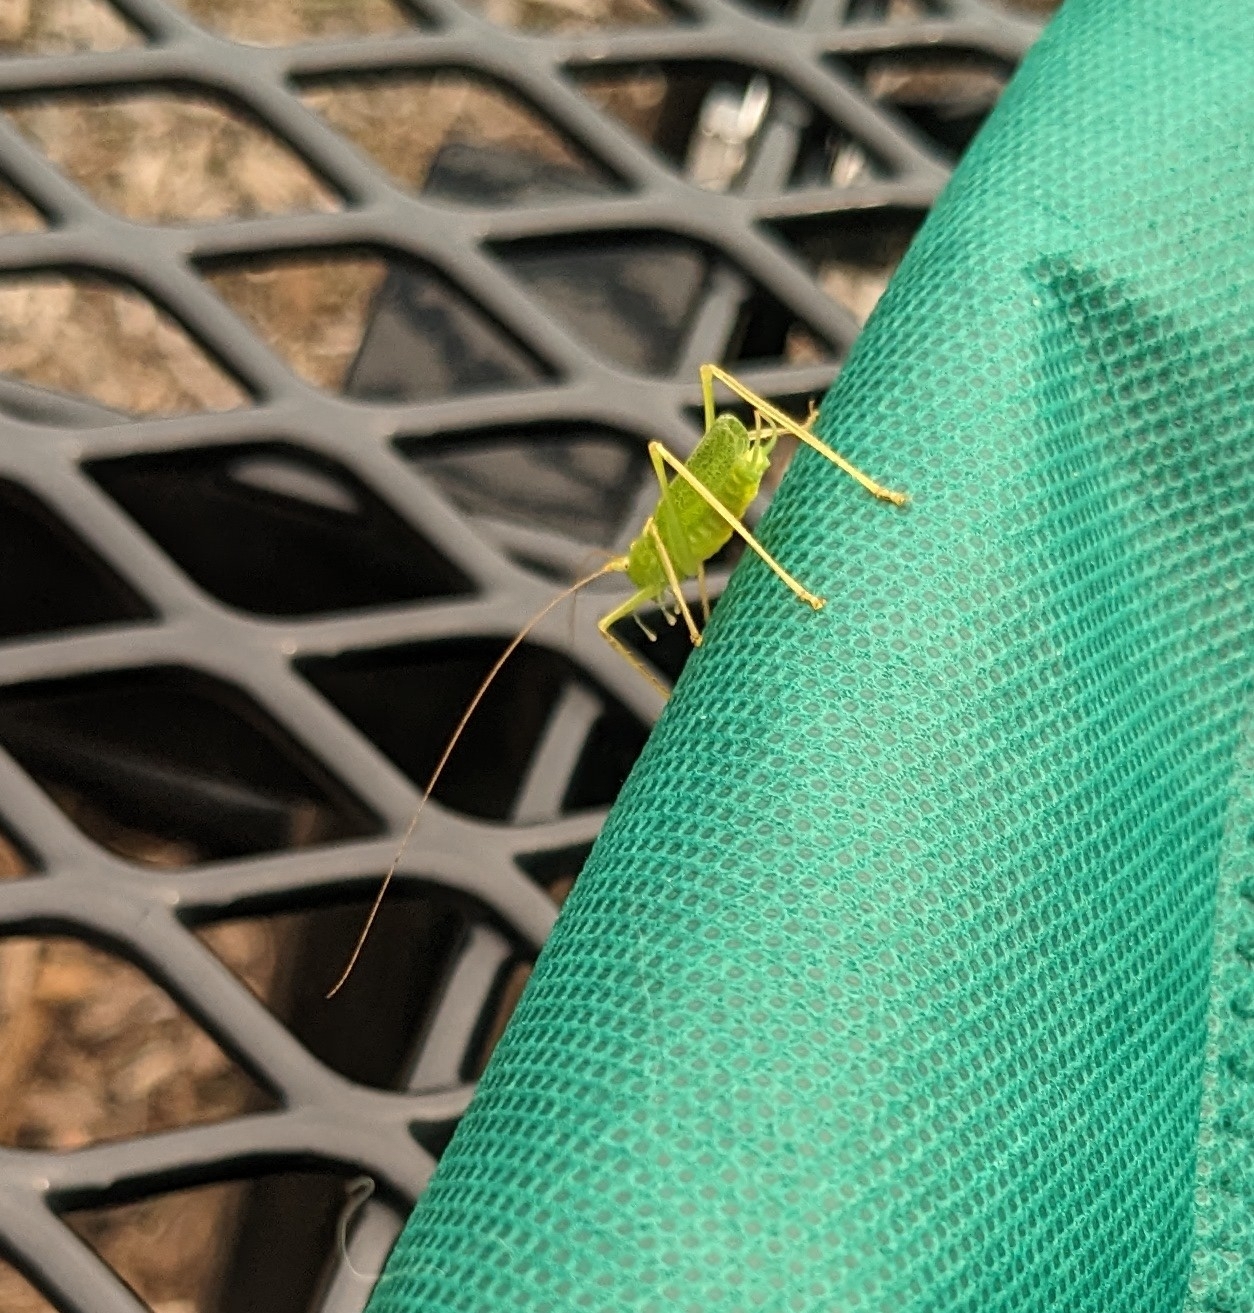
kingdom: Animalia
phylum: Arthropoda
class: Insecta
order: Orthoptera
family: Tettigoniidae
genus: Meconema
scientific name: Meconema thalassinum
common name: Oak bush-cricket
